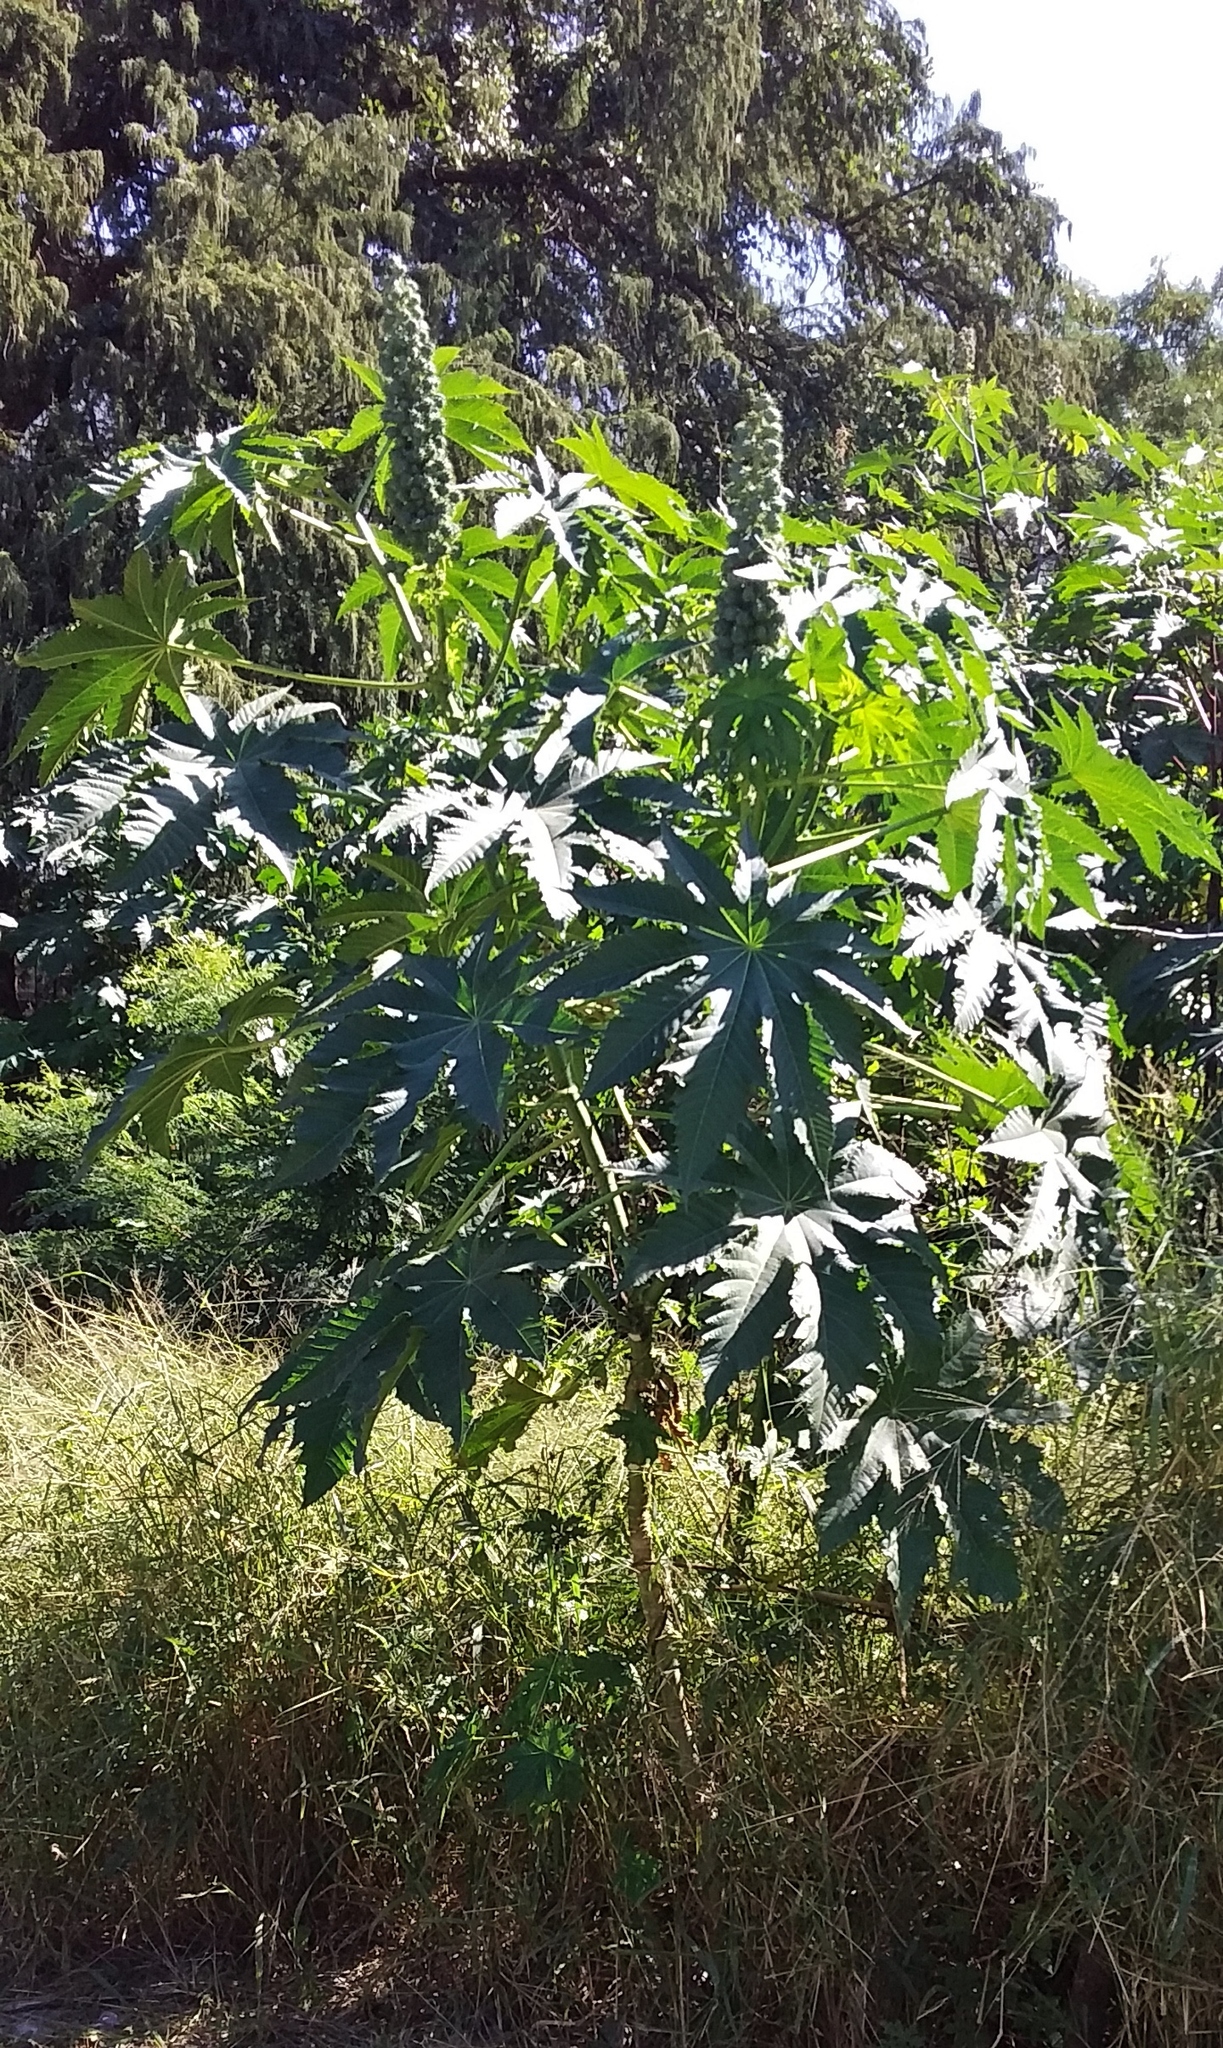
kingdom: Plantae
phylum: Tracheophyta
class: Magnoliopsida
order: Malpighiales
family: Euphorbiaceae
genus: Ricinus
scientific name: Ricinus communis
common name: Castor-oil-plant
